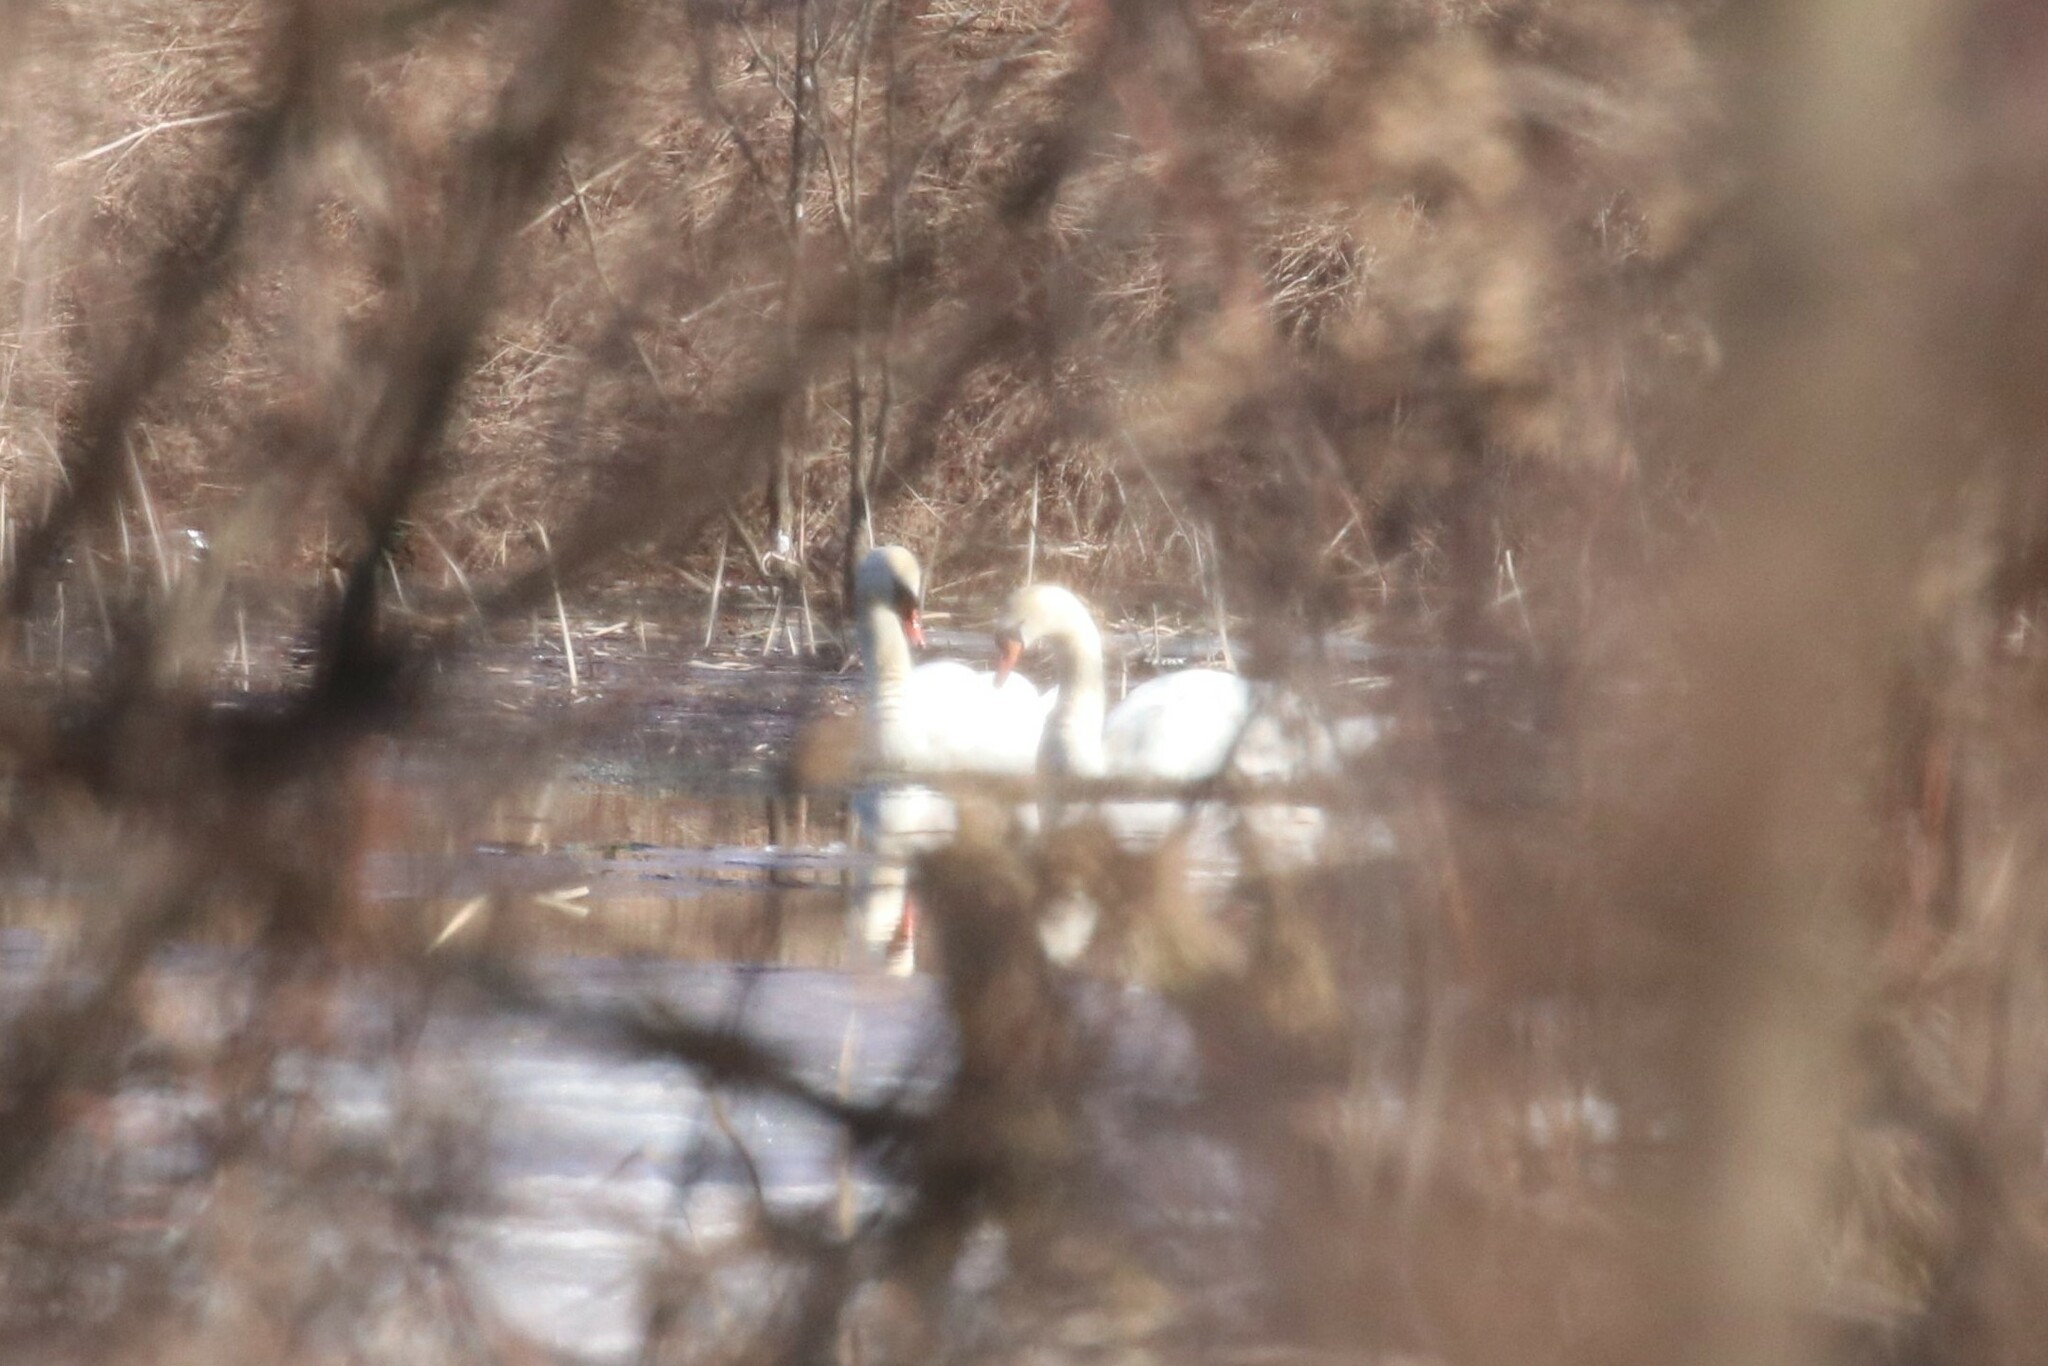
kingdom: Animalia
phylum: Chordata
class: Aves
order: Anseriformes
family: Anatidae
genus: Cygnus
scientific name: Cygnus olor
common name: Mute swan
